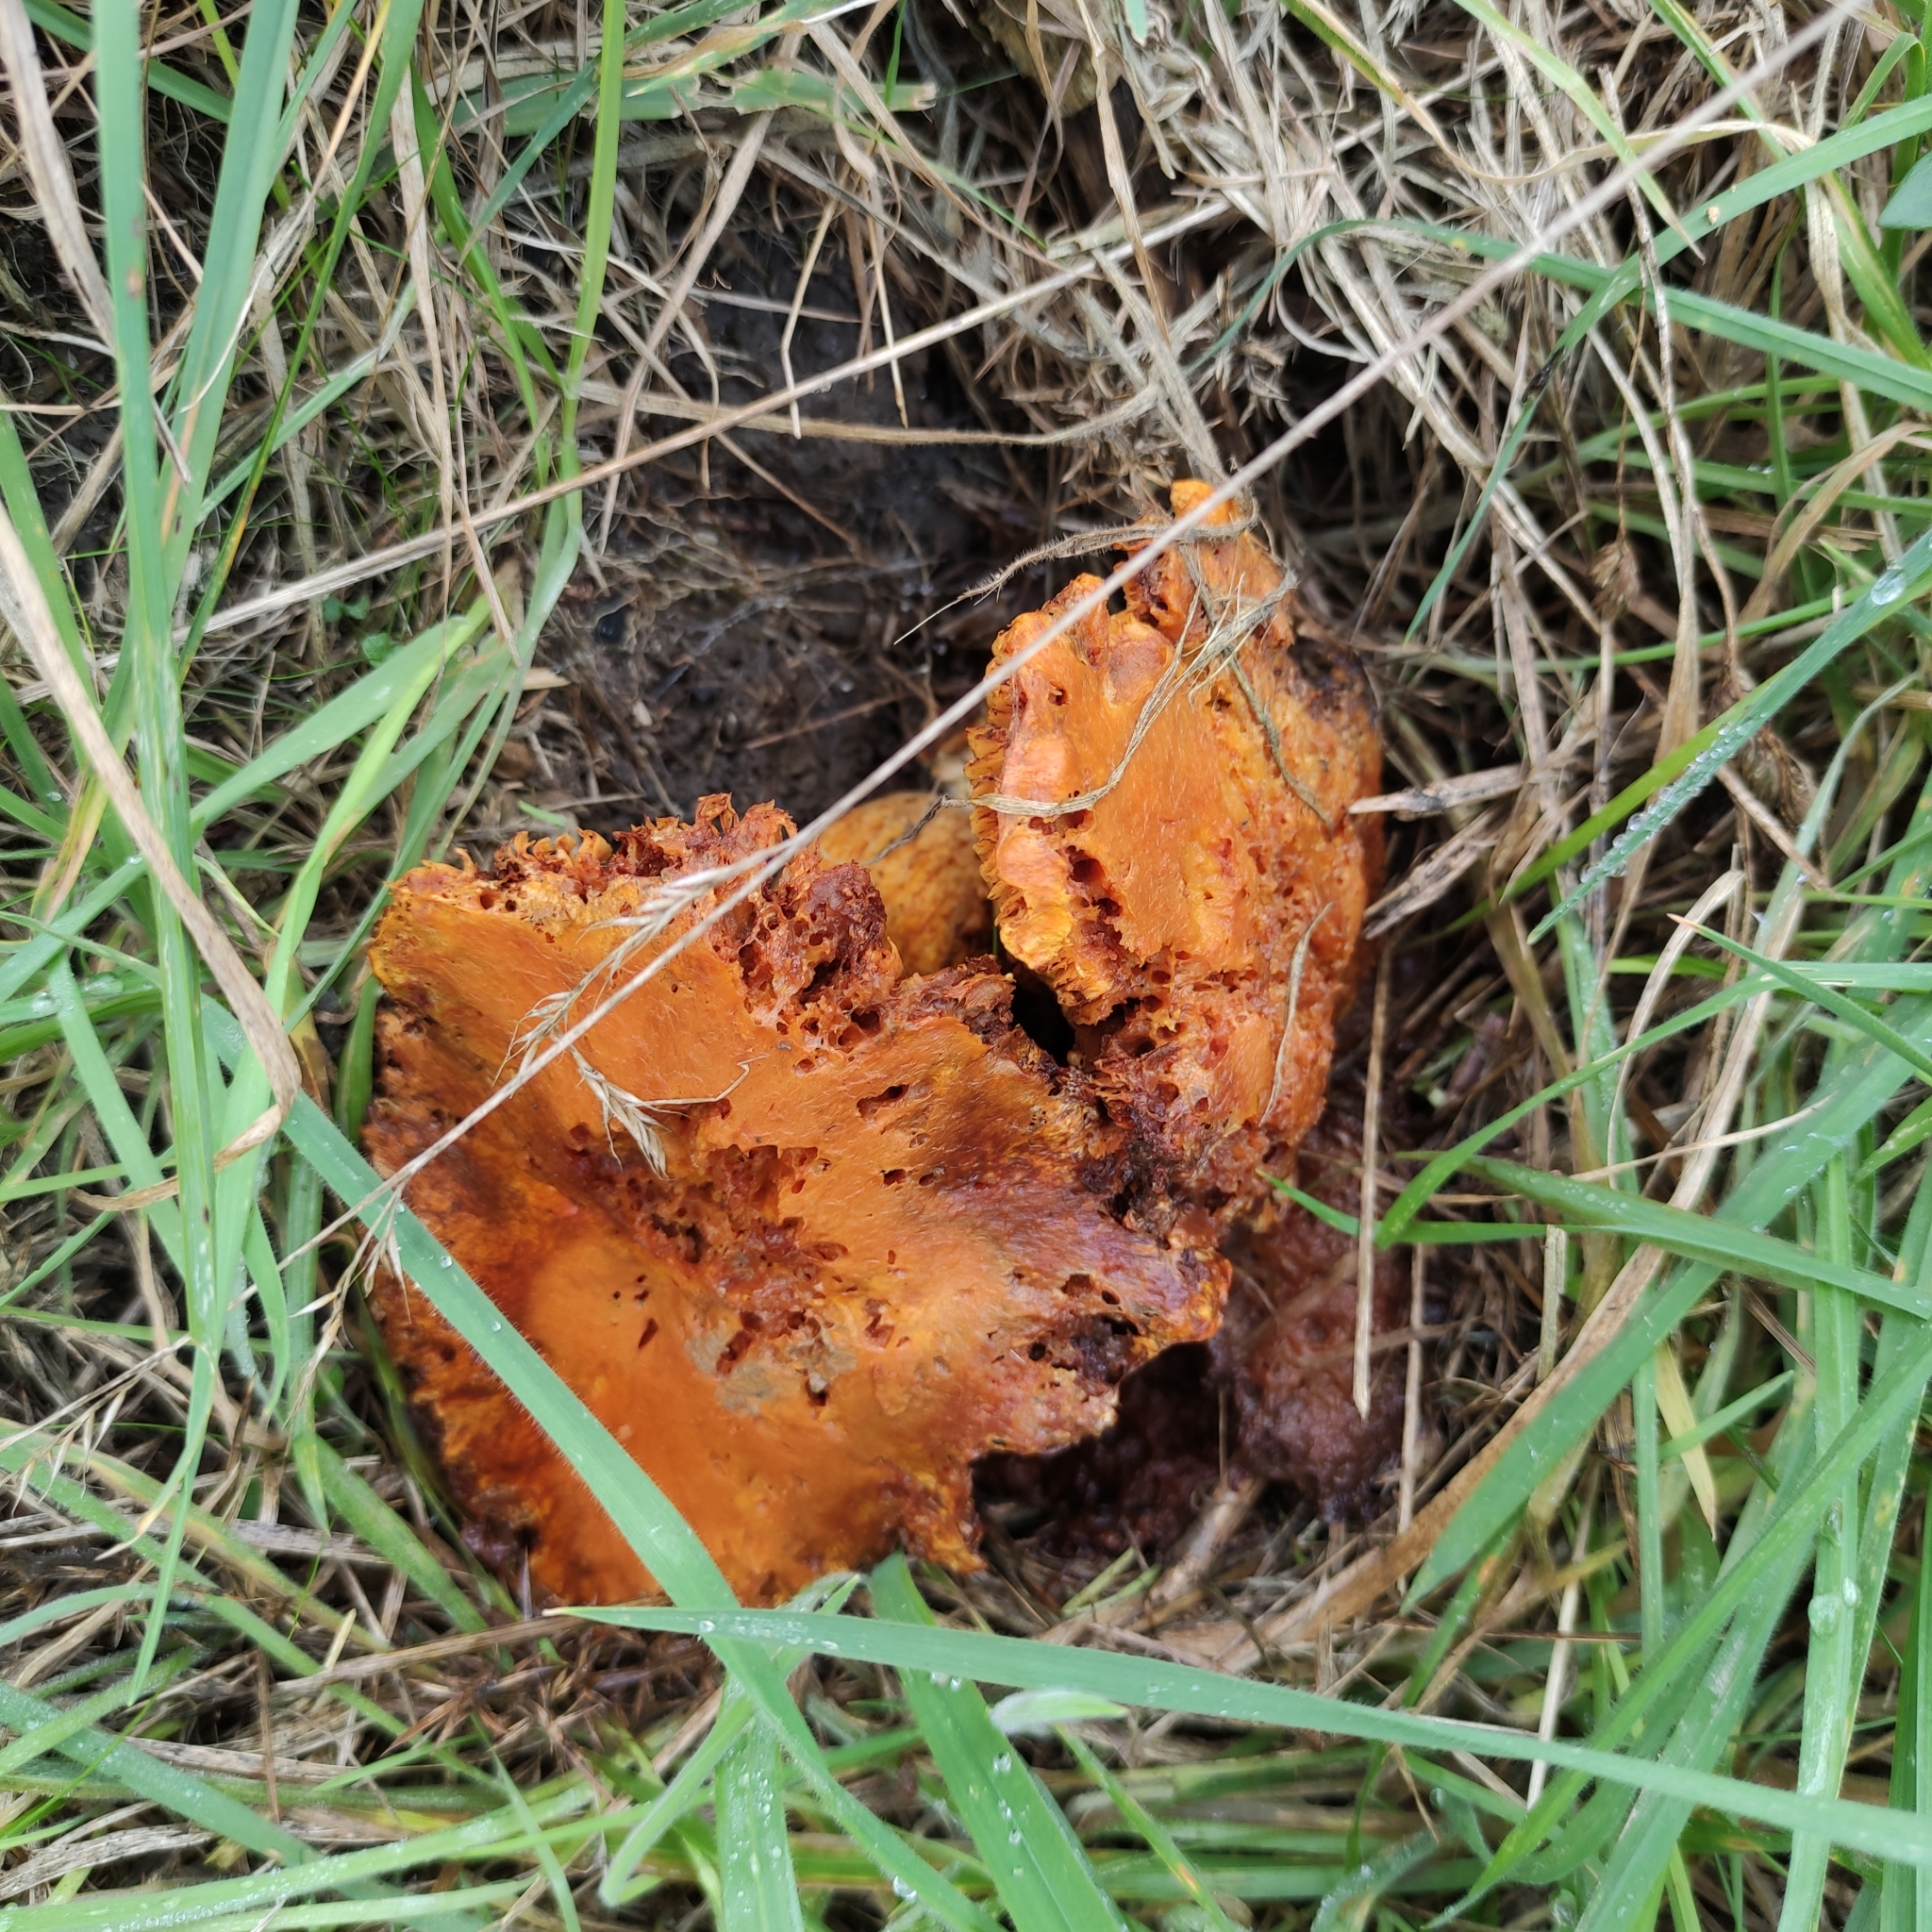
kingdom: Fungi
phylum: Basidiomycota
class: Agaricomycetes
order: Agaricales
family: Hymenogastraceae
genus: Gymnopilus
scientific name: Gymnopilus junonius
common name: Spectacular rustgill
